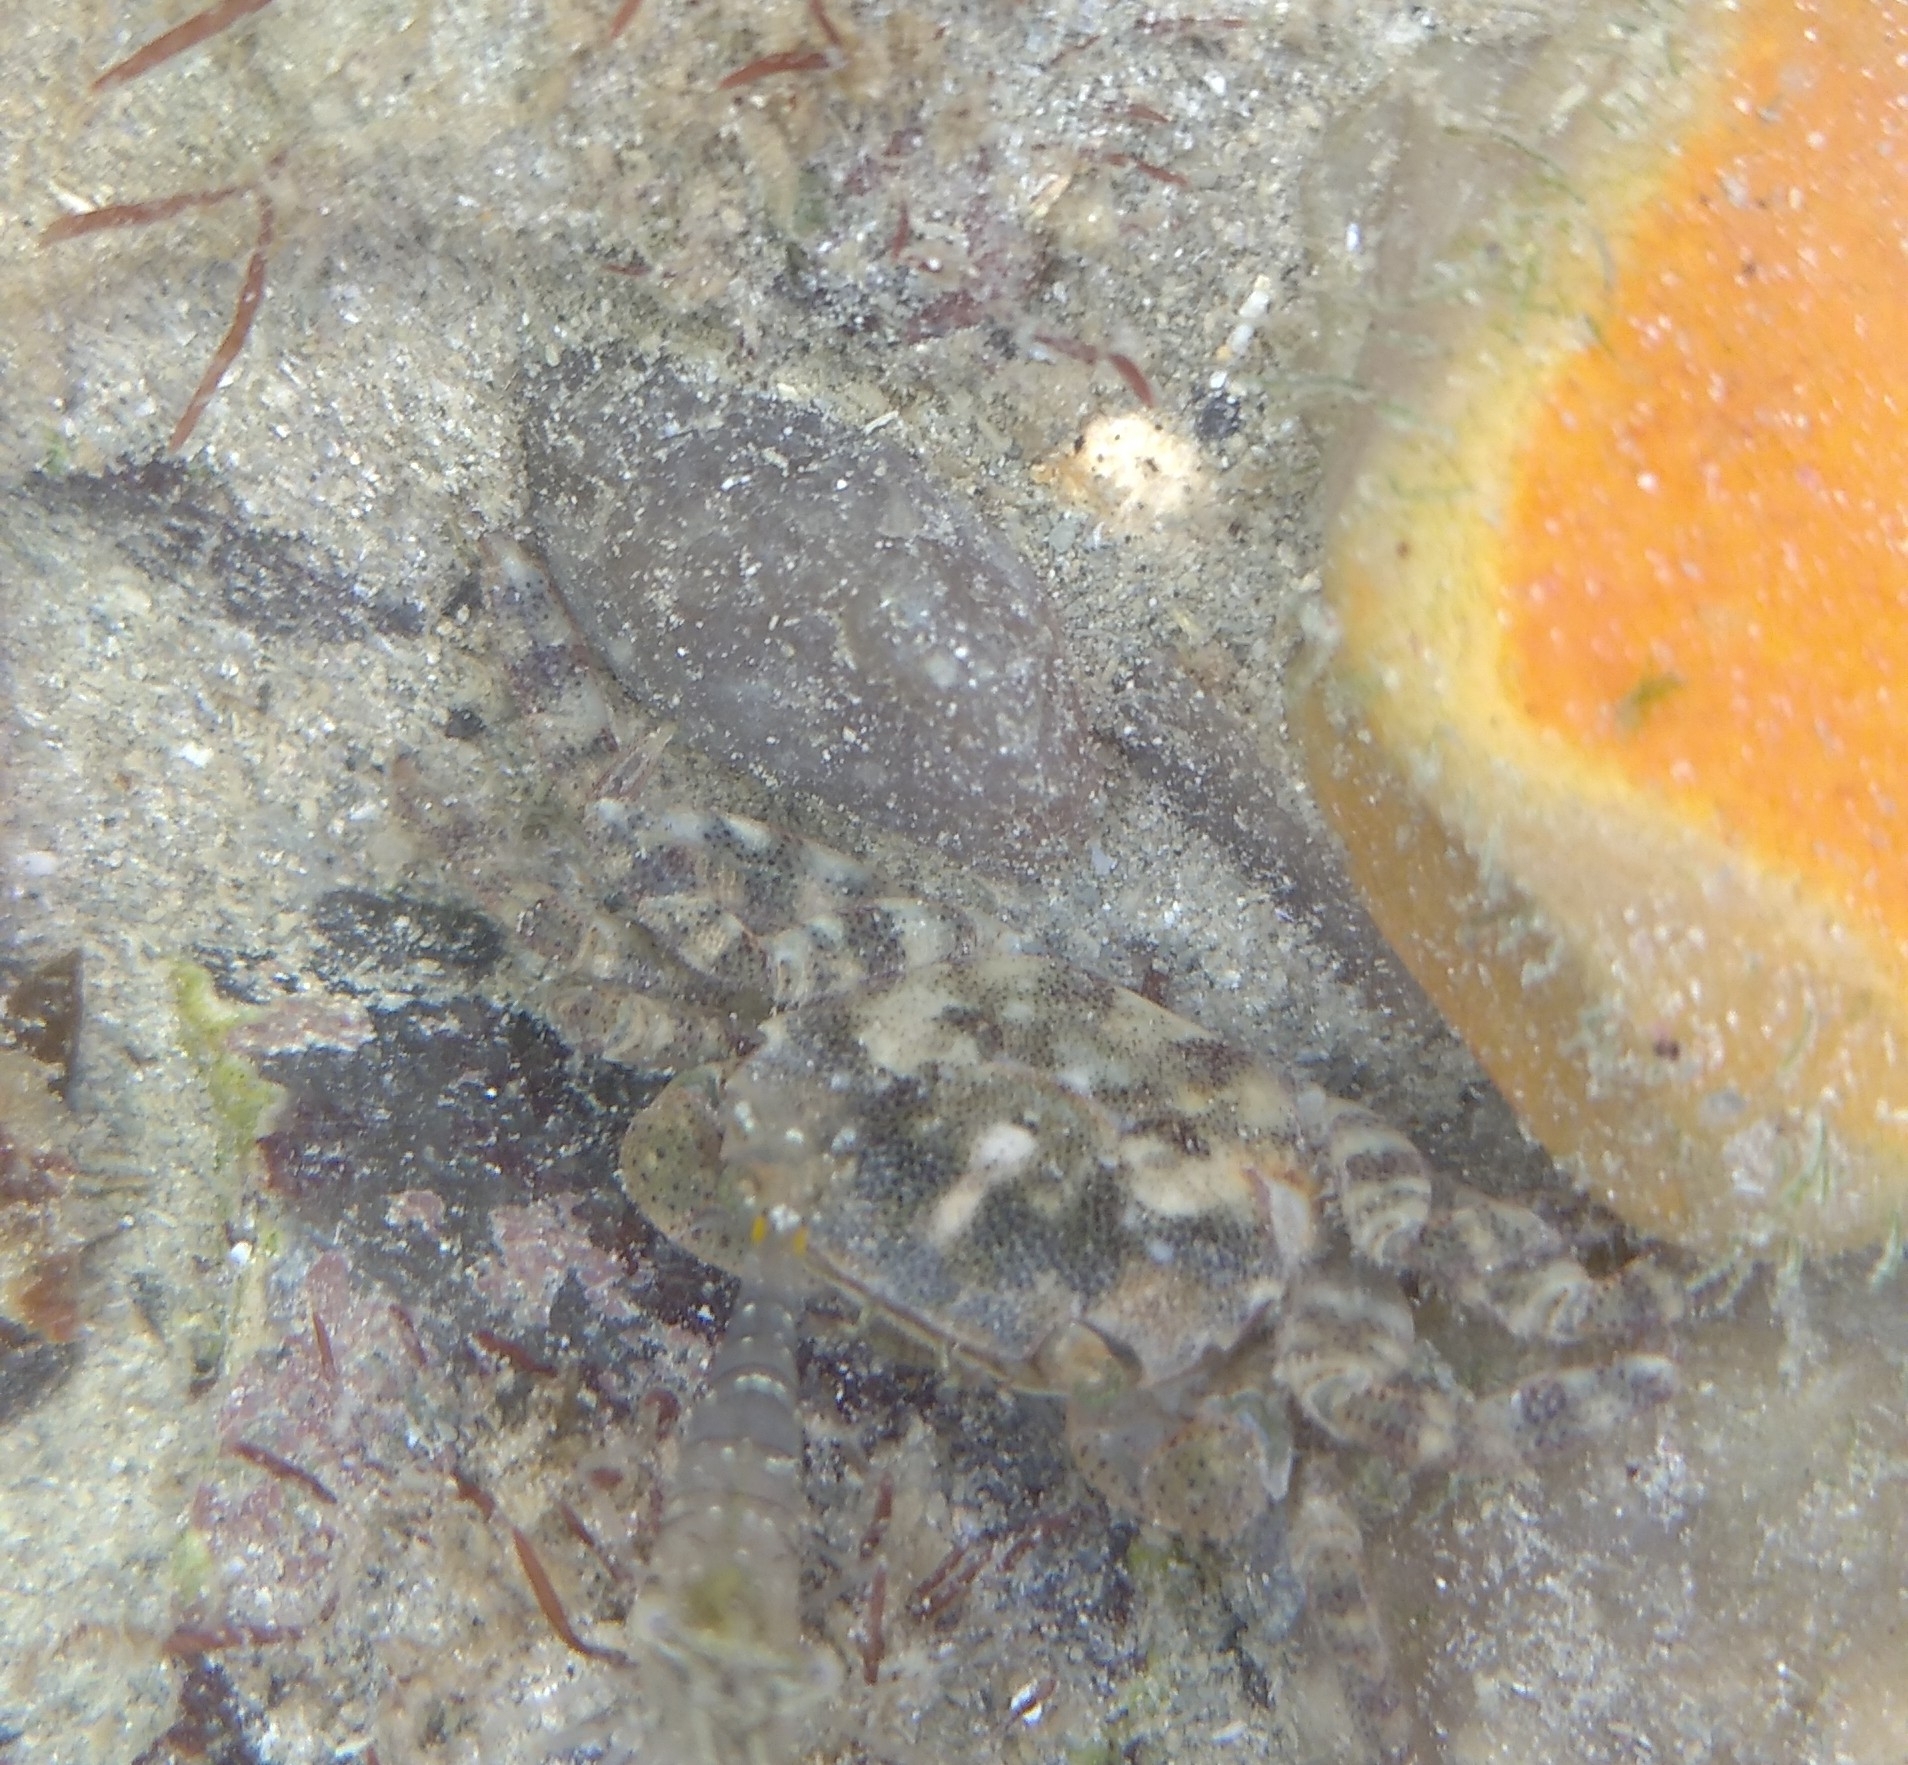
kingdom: Animalia
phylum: Arthropoda
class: Malacostraca
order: Decapoda
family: Varunidae
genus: Hemigrapsus
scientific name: Hemigrapsus sanguineus
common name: Asian shore crab
